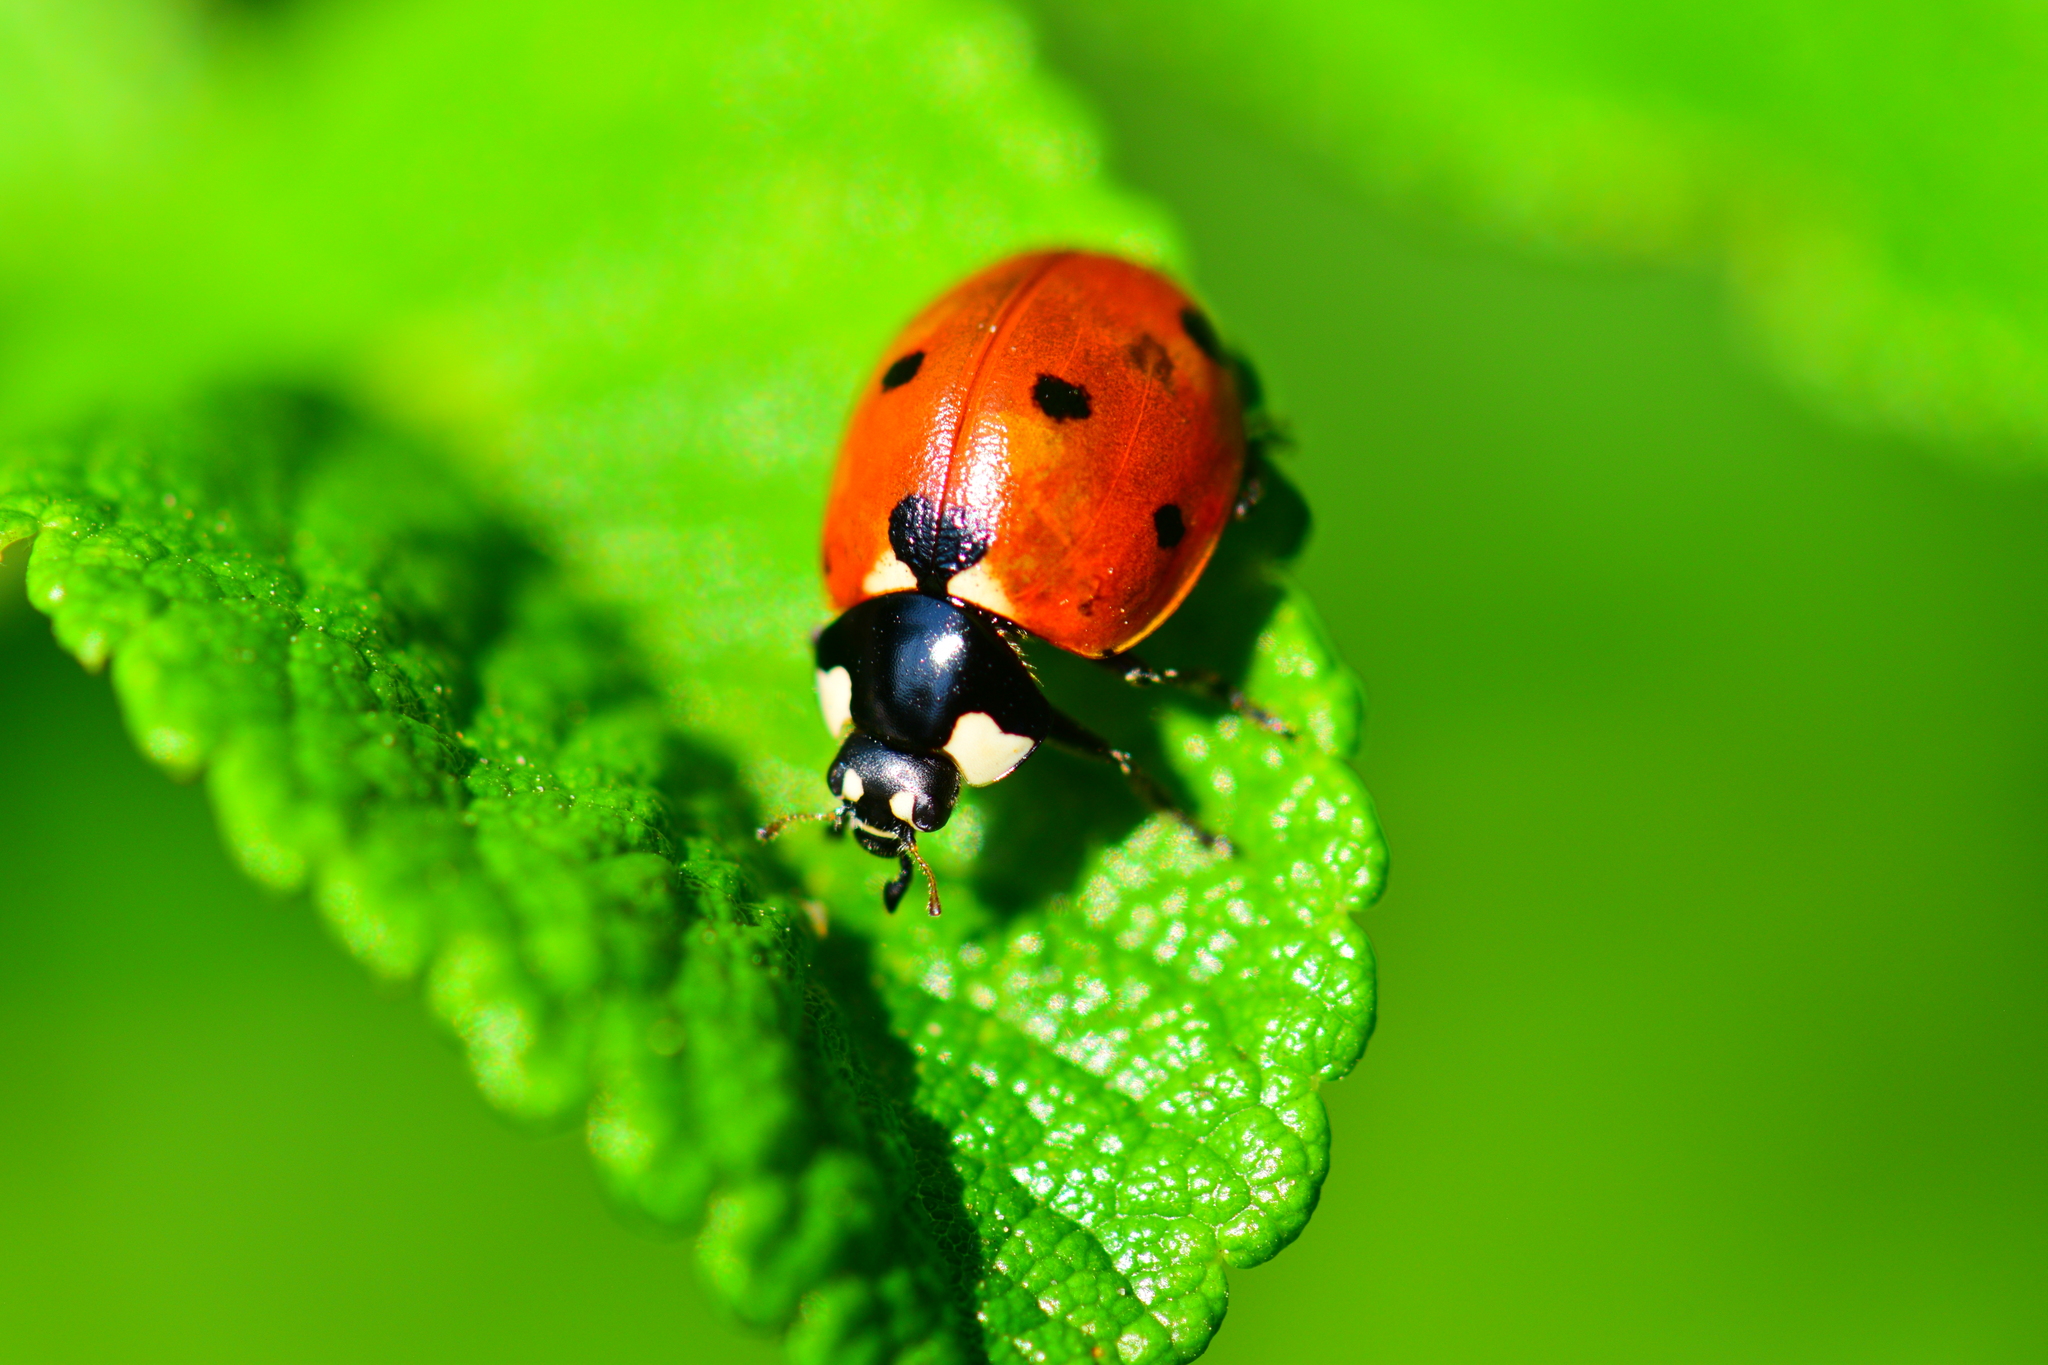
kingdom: Animalia
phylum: Arthropoda
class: Insecta
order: Coleoptera
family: Coccinellidae
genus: Coccinella
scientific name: Coccinella septempunctata
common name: Sevenspotted lady beetle
